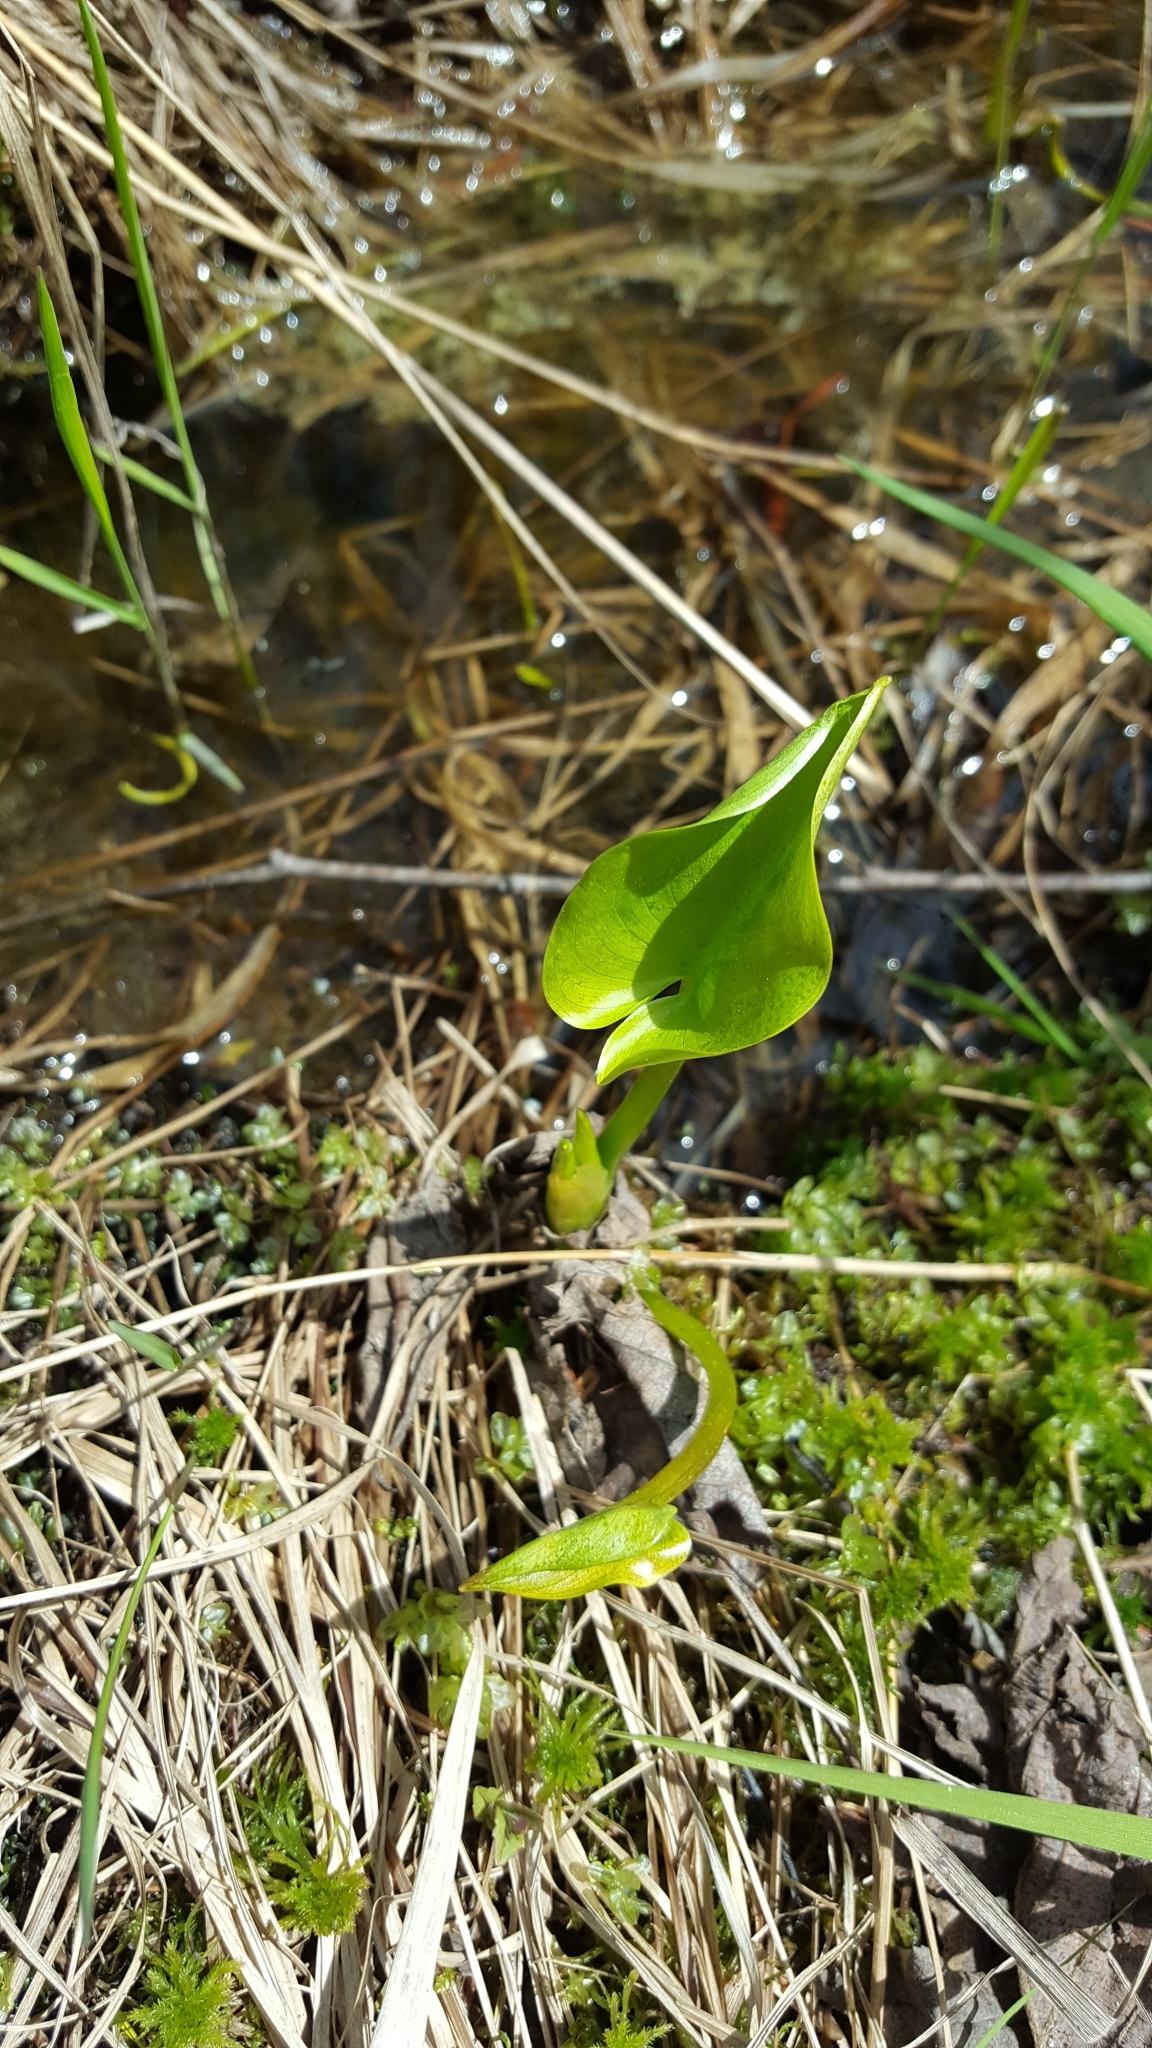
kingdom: Plantae
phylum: Tracheophyta
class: Liliopsida
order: Alismatales
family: Araceae
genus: Calla
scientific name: Calla palustris
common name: Bog arum
